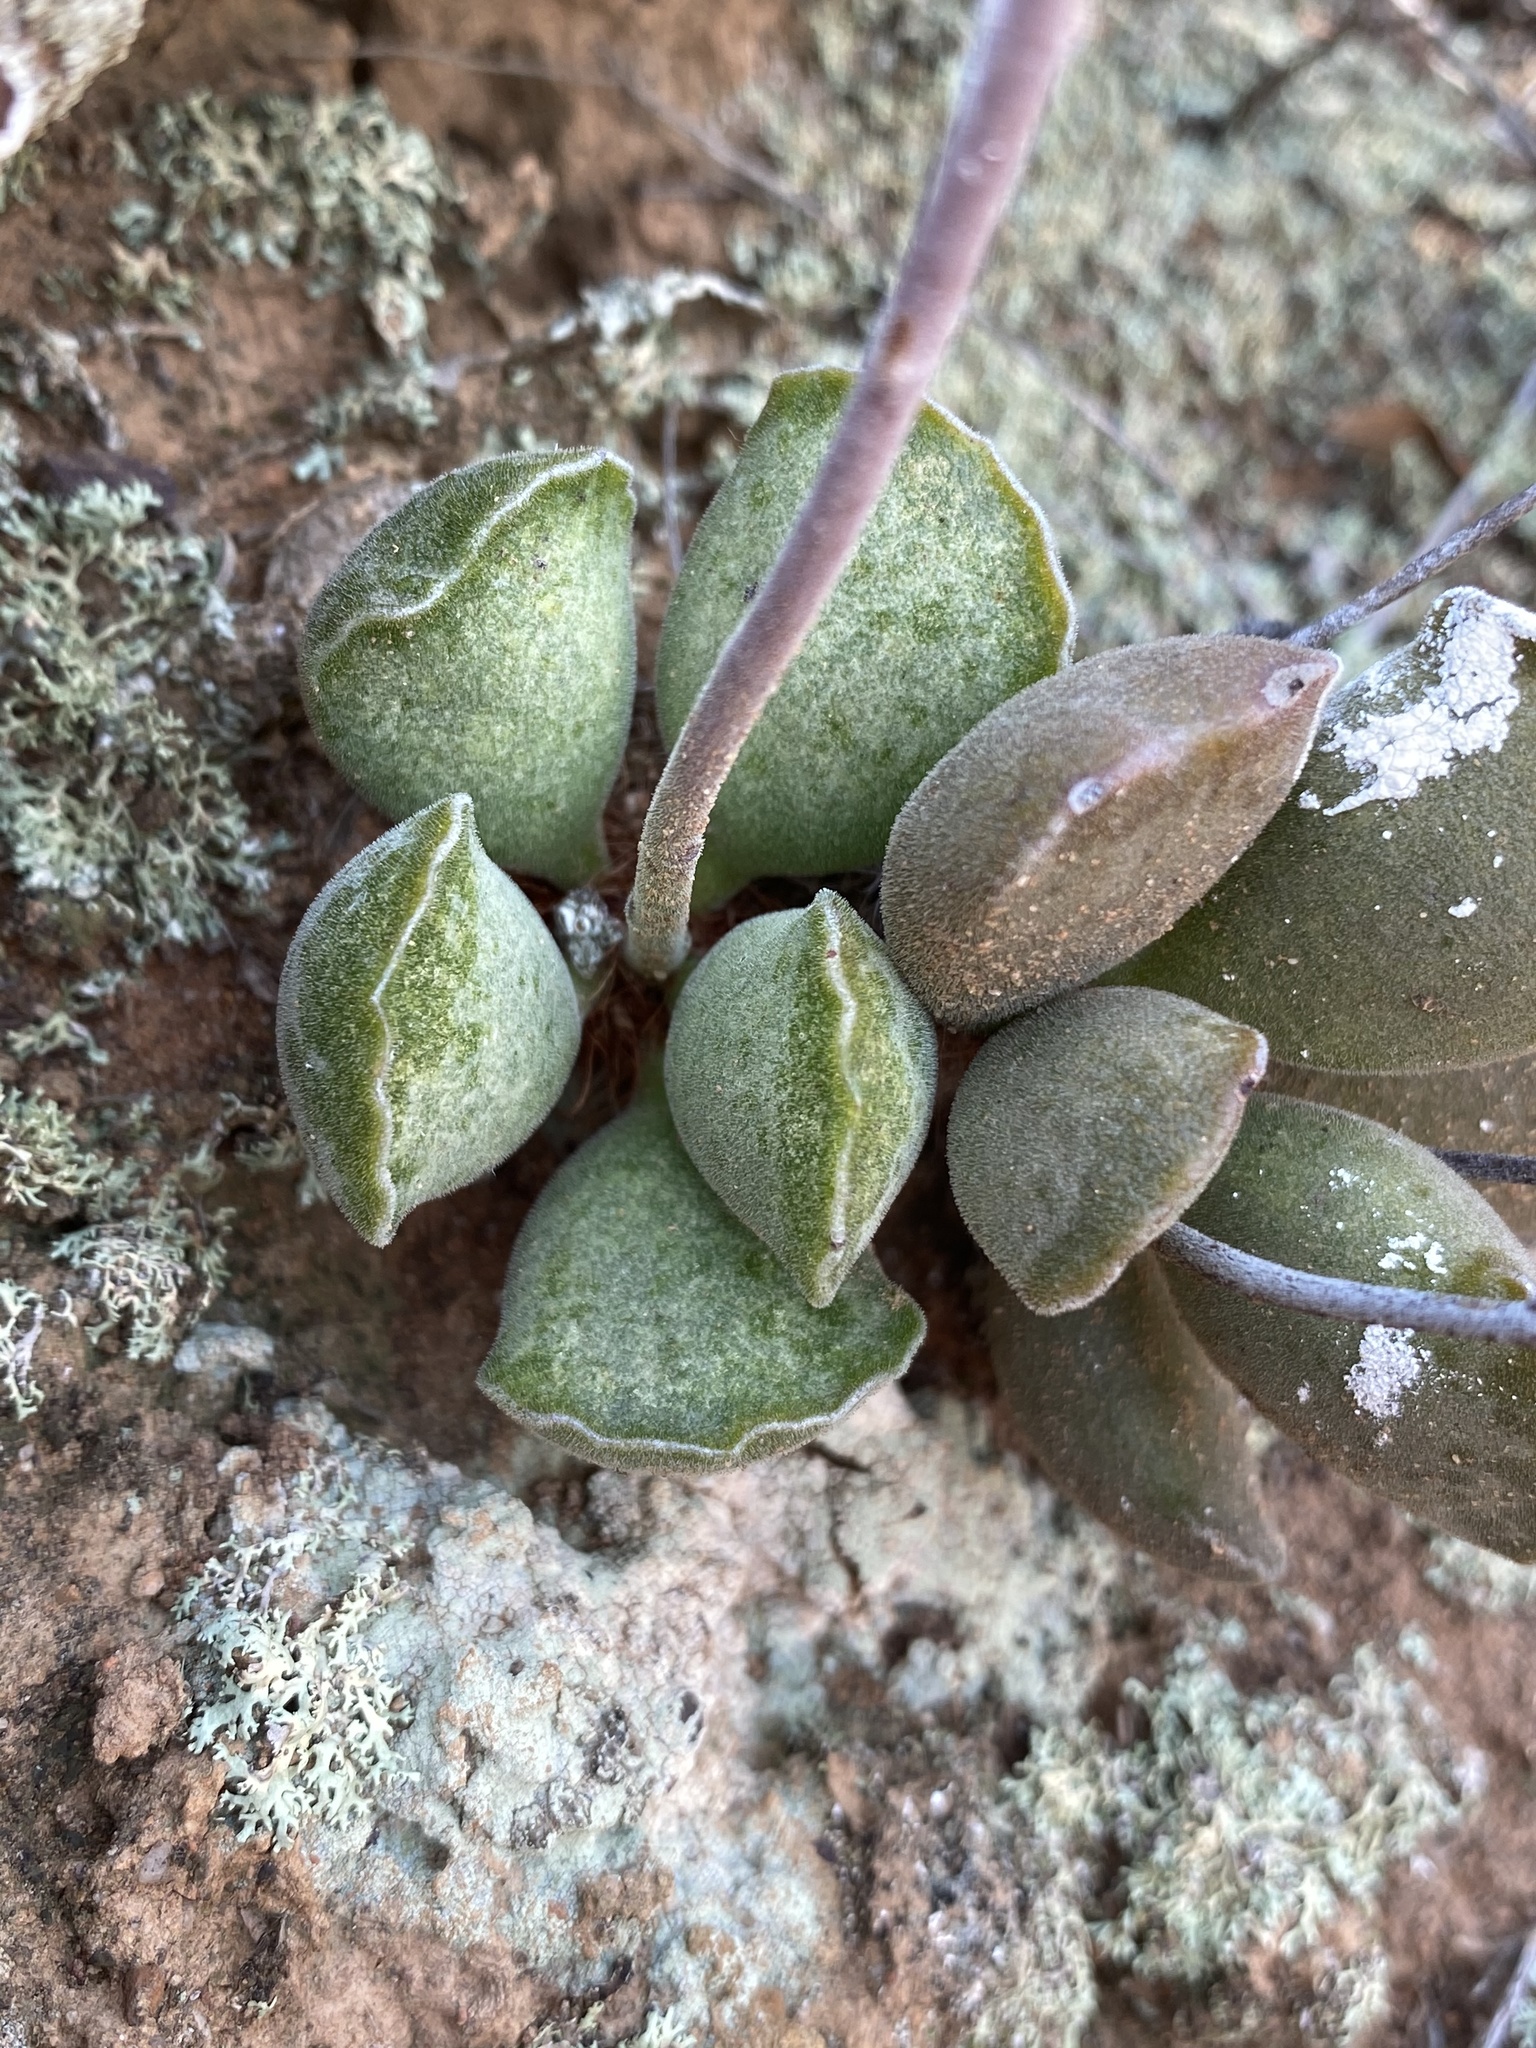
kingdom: Plantae
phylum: Tracheophyta
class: Magnoliopsida
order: Saxifragales
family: Crassulaceae
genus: Adromischus
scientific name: Adromischus cristatus
